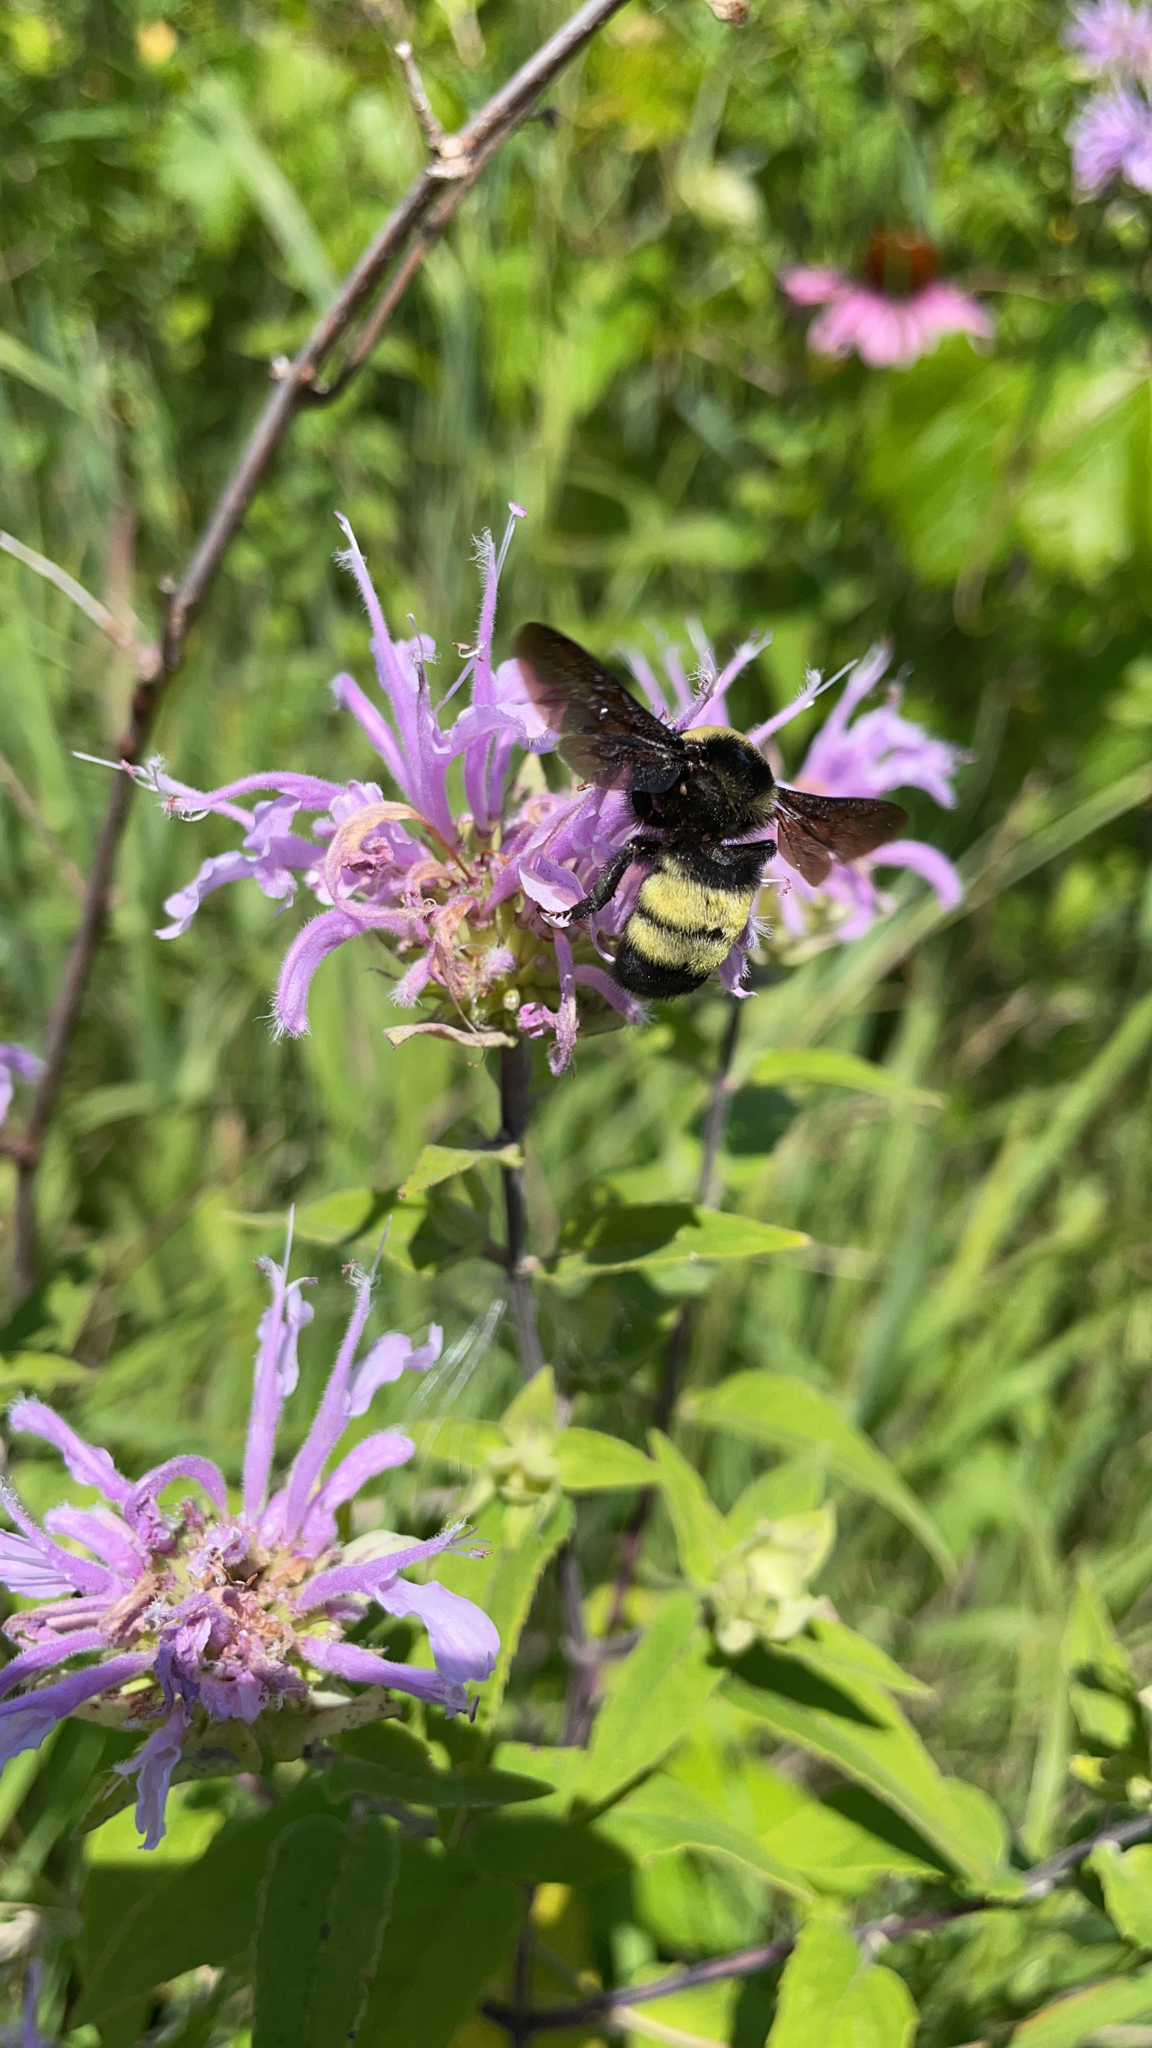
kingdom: Animalia
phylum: Arthropoda
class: Insecta
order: Hymenoptera
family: Apidae
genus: Bombus
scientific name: Bombus auricomus
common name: Black and gold bumble bee
